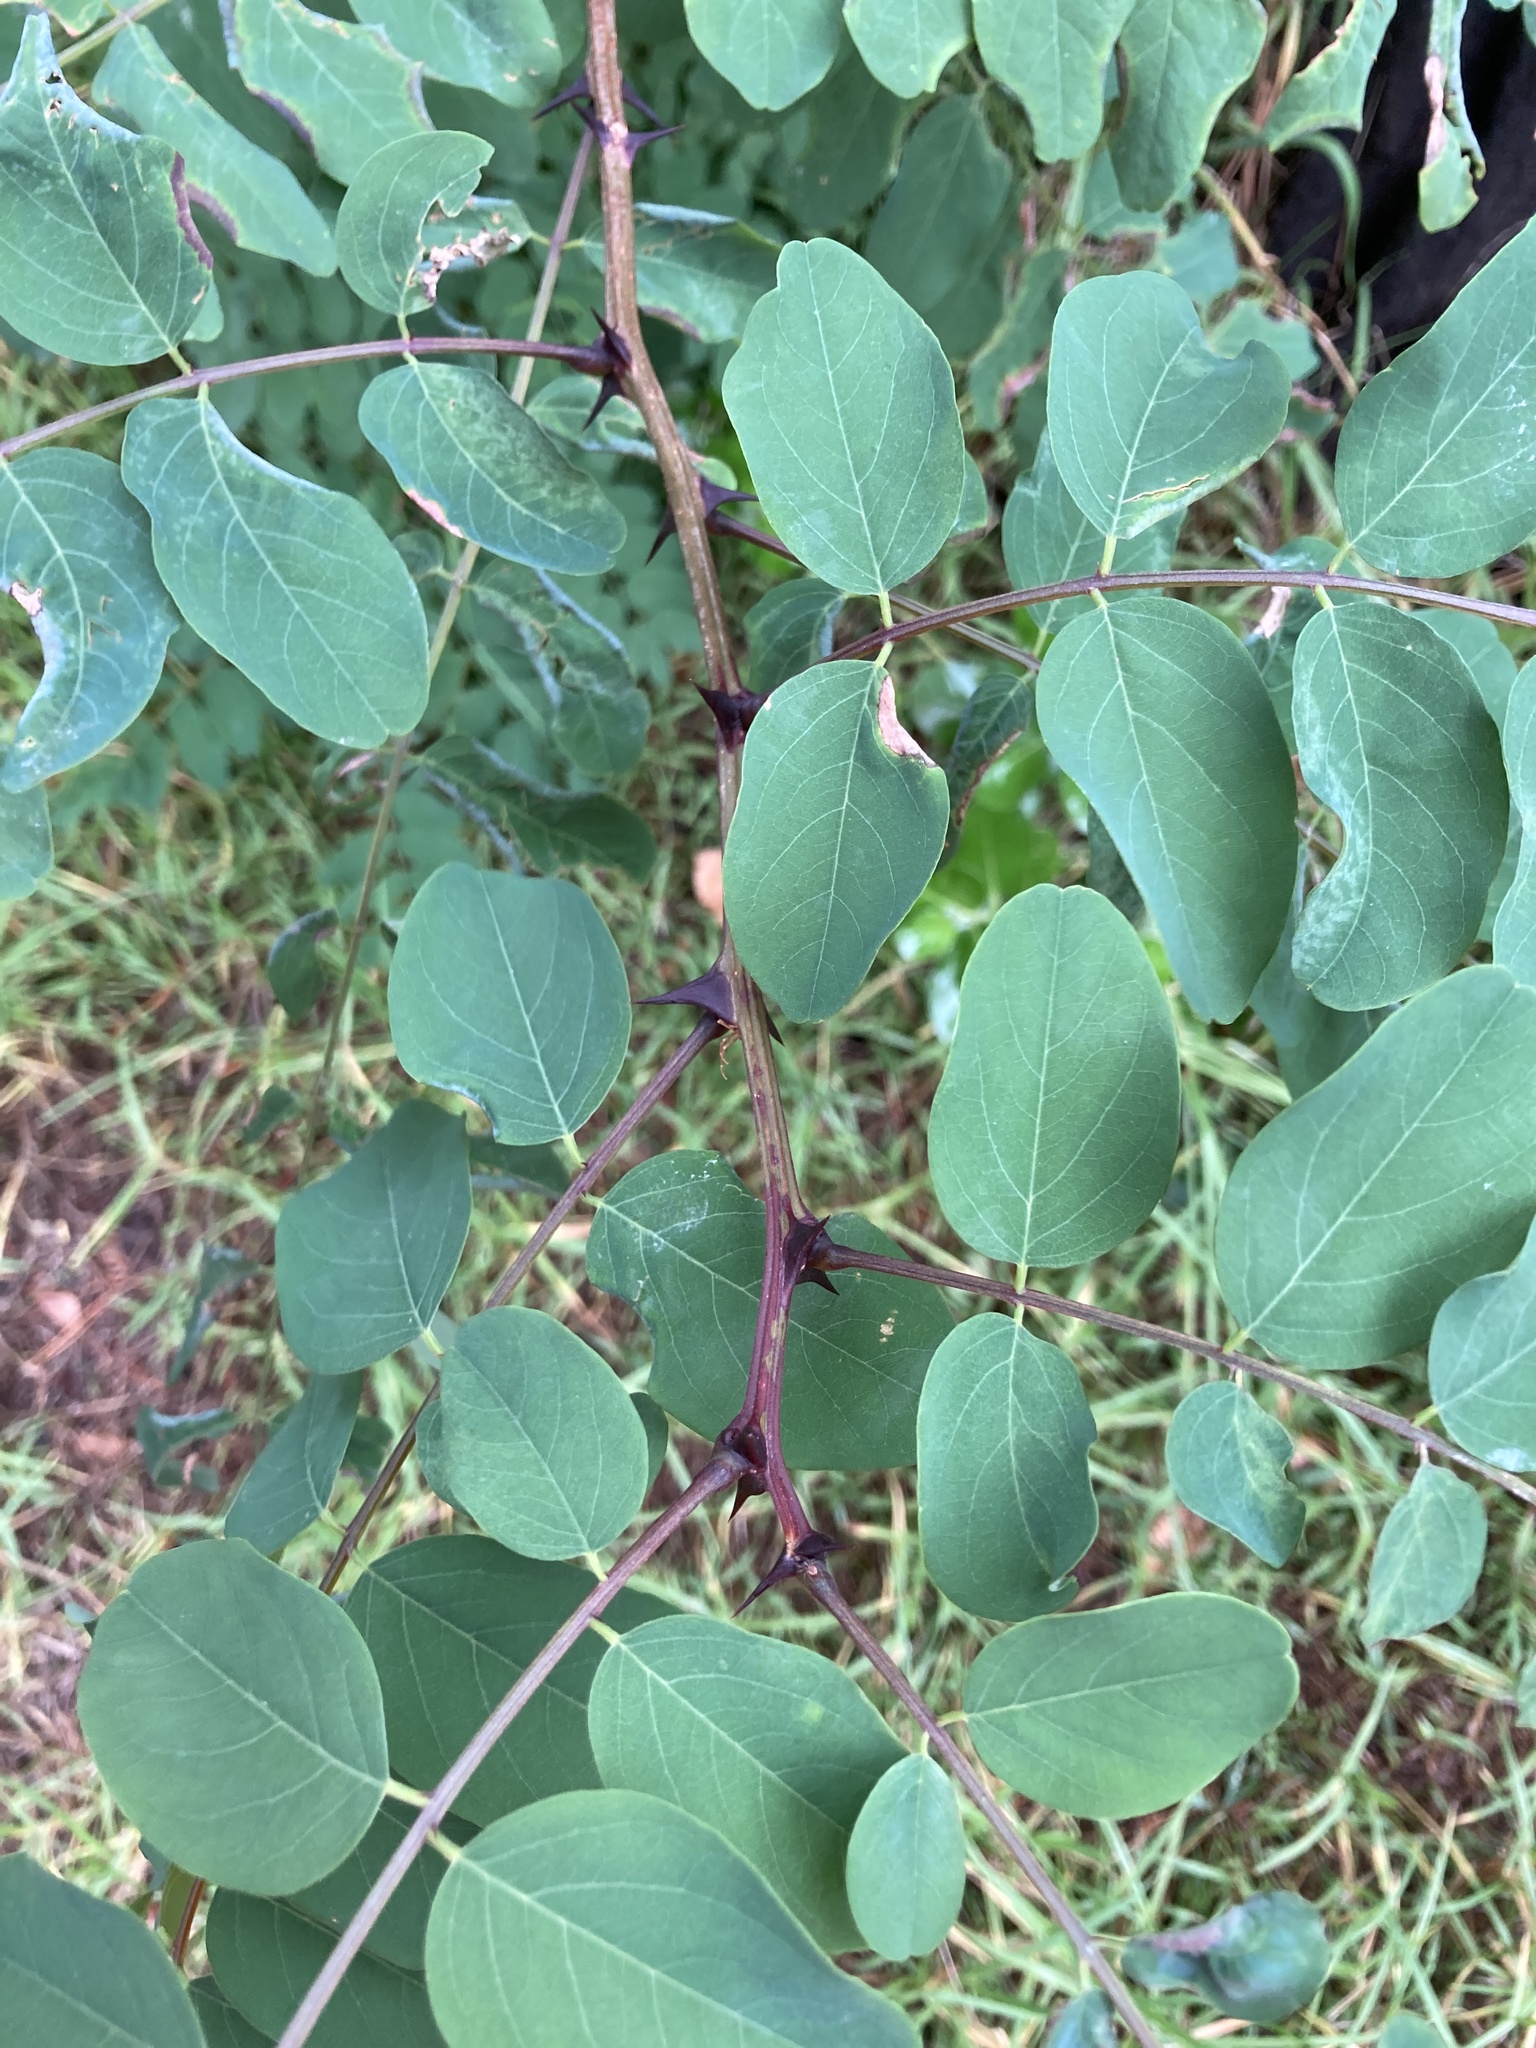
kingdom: Plantae
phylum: Tracheophyta
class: Magnoliopsida
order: Fabales
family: Fabaceae
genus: Robinia
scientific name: Robinia pseudoacacia
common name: Black locust
